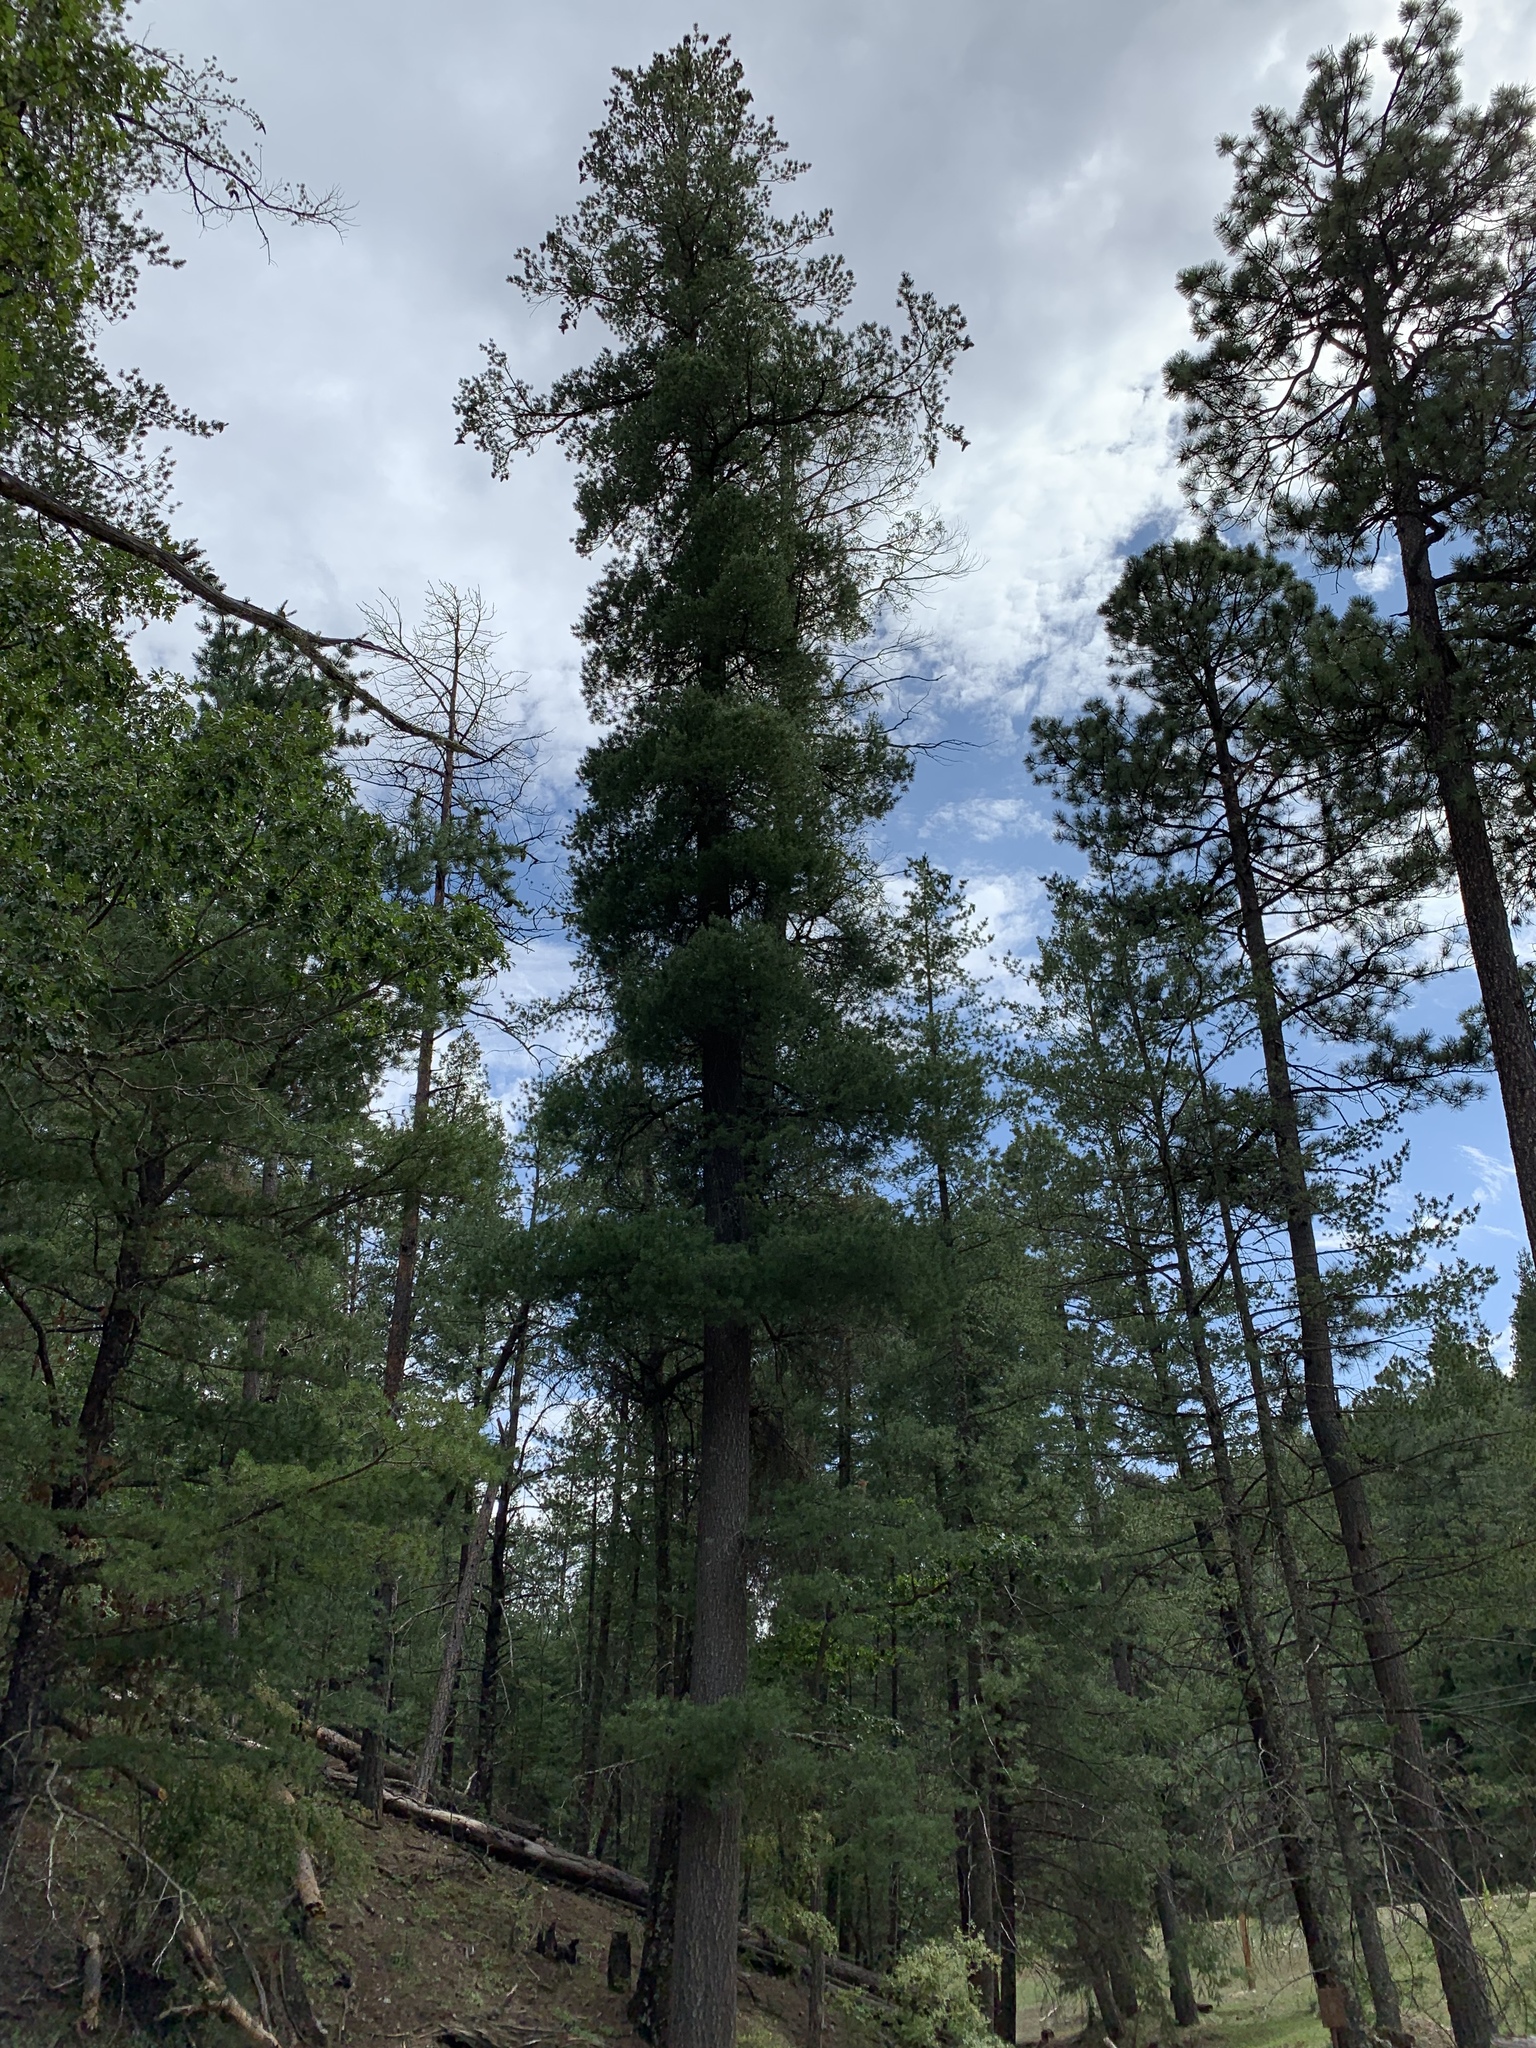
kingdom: Plantae
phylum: Tracheophyta
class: Pinopsida
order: Pinales
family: Pinaceae
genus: Pinus
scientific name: Pinus strobiformis
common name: Southwestern white pine
